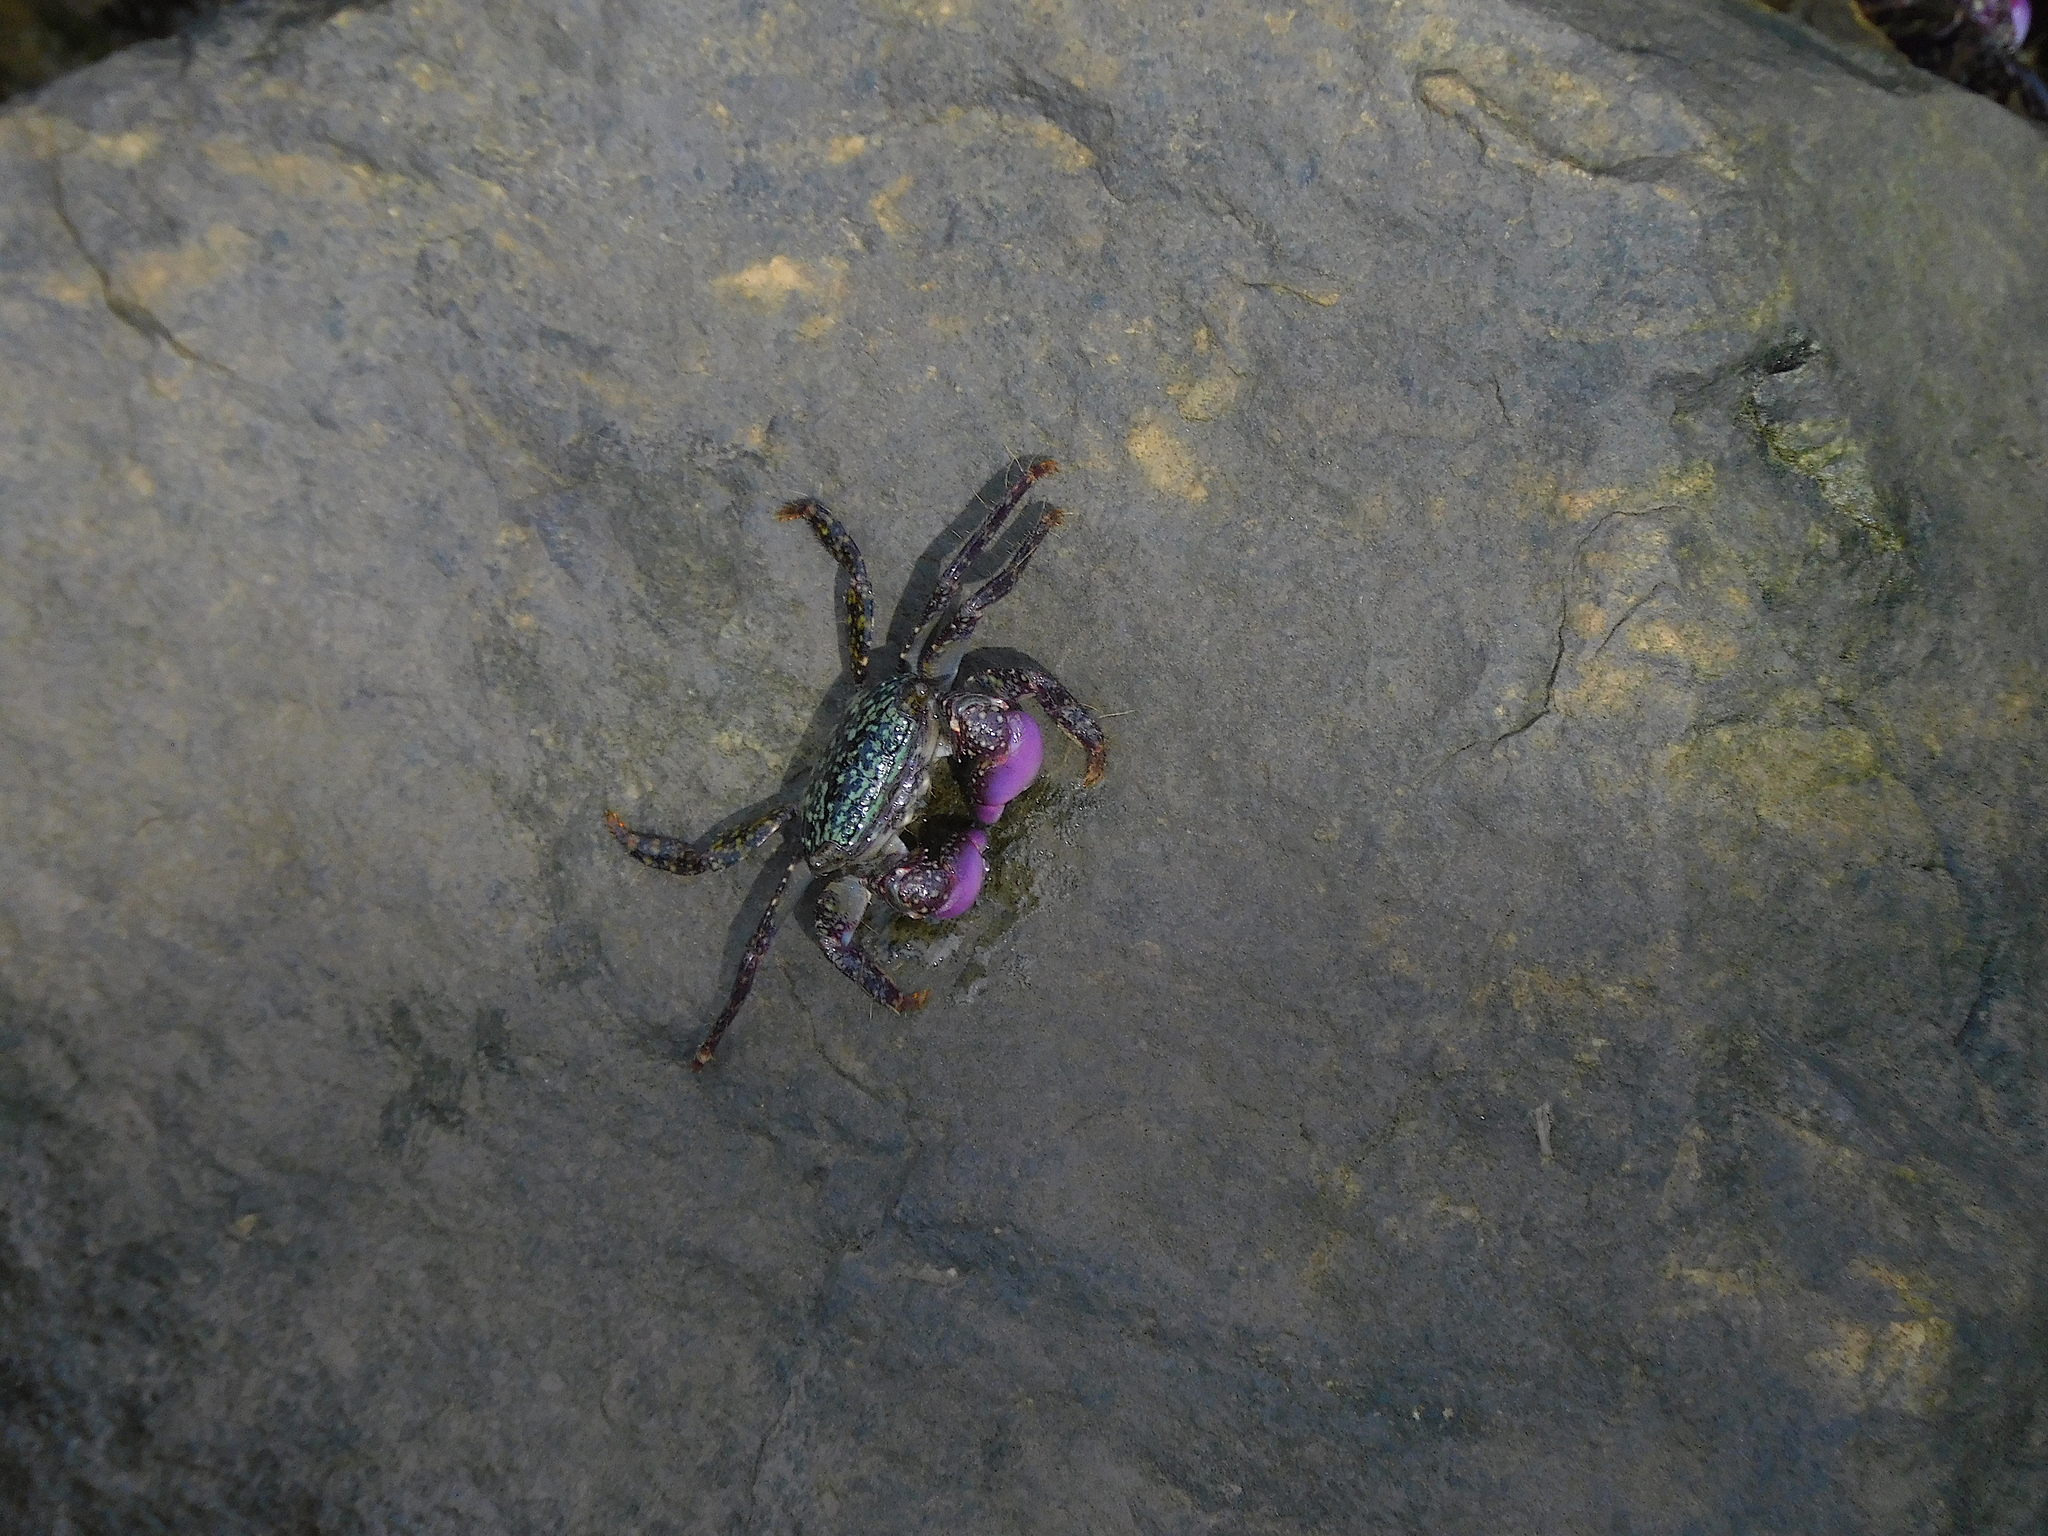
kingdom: Animalia
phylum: Arthropoda
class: Malacostraca
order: Decapoda
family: Grapsidae
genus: Metopograpsus
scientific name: Metopograpsus frontalis
